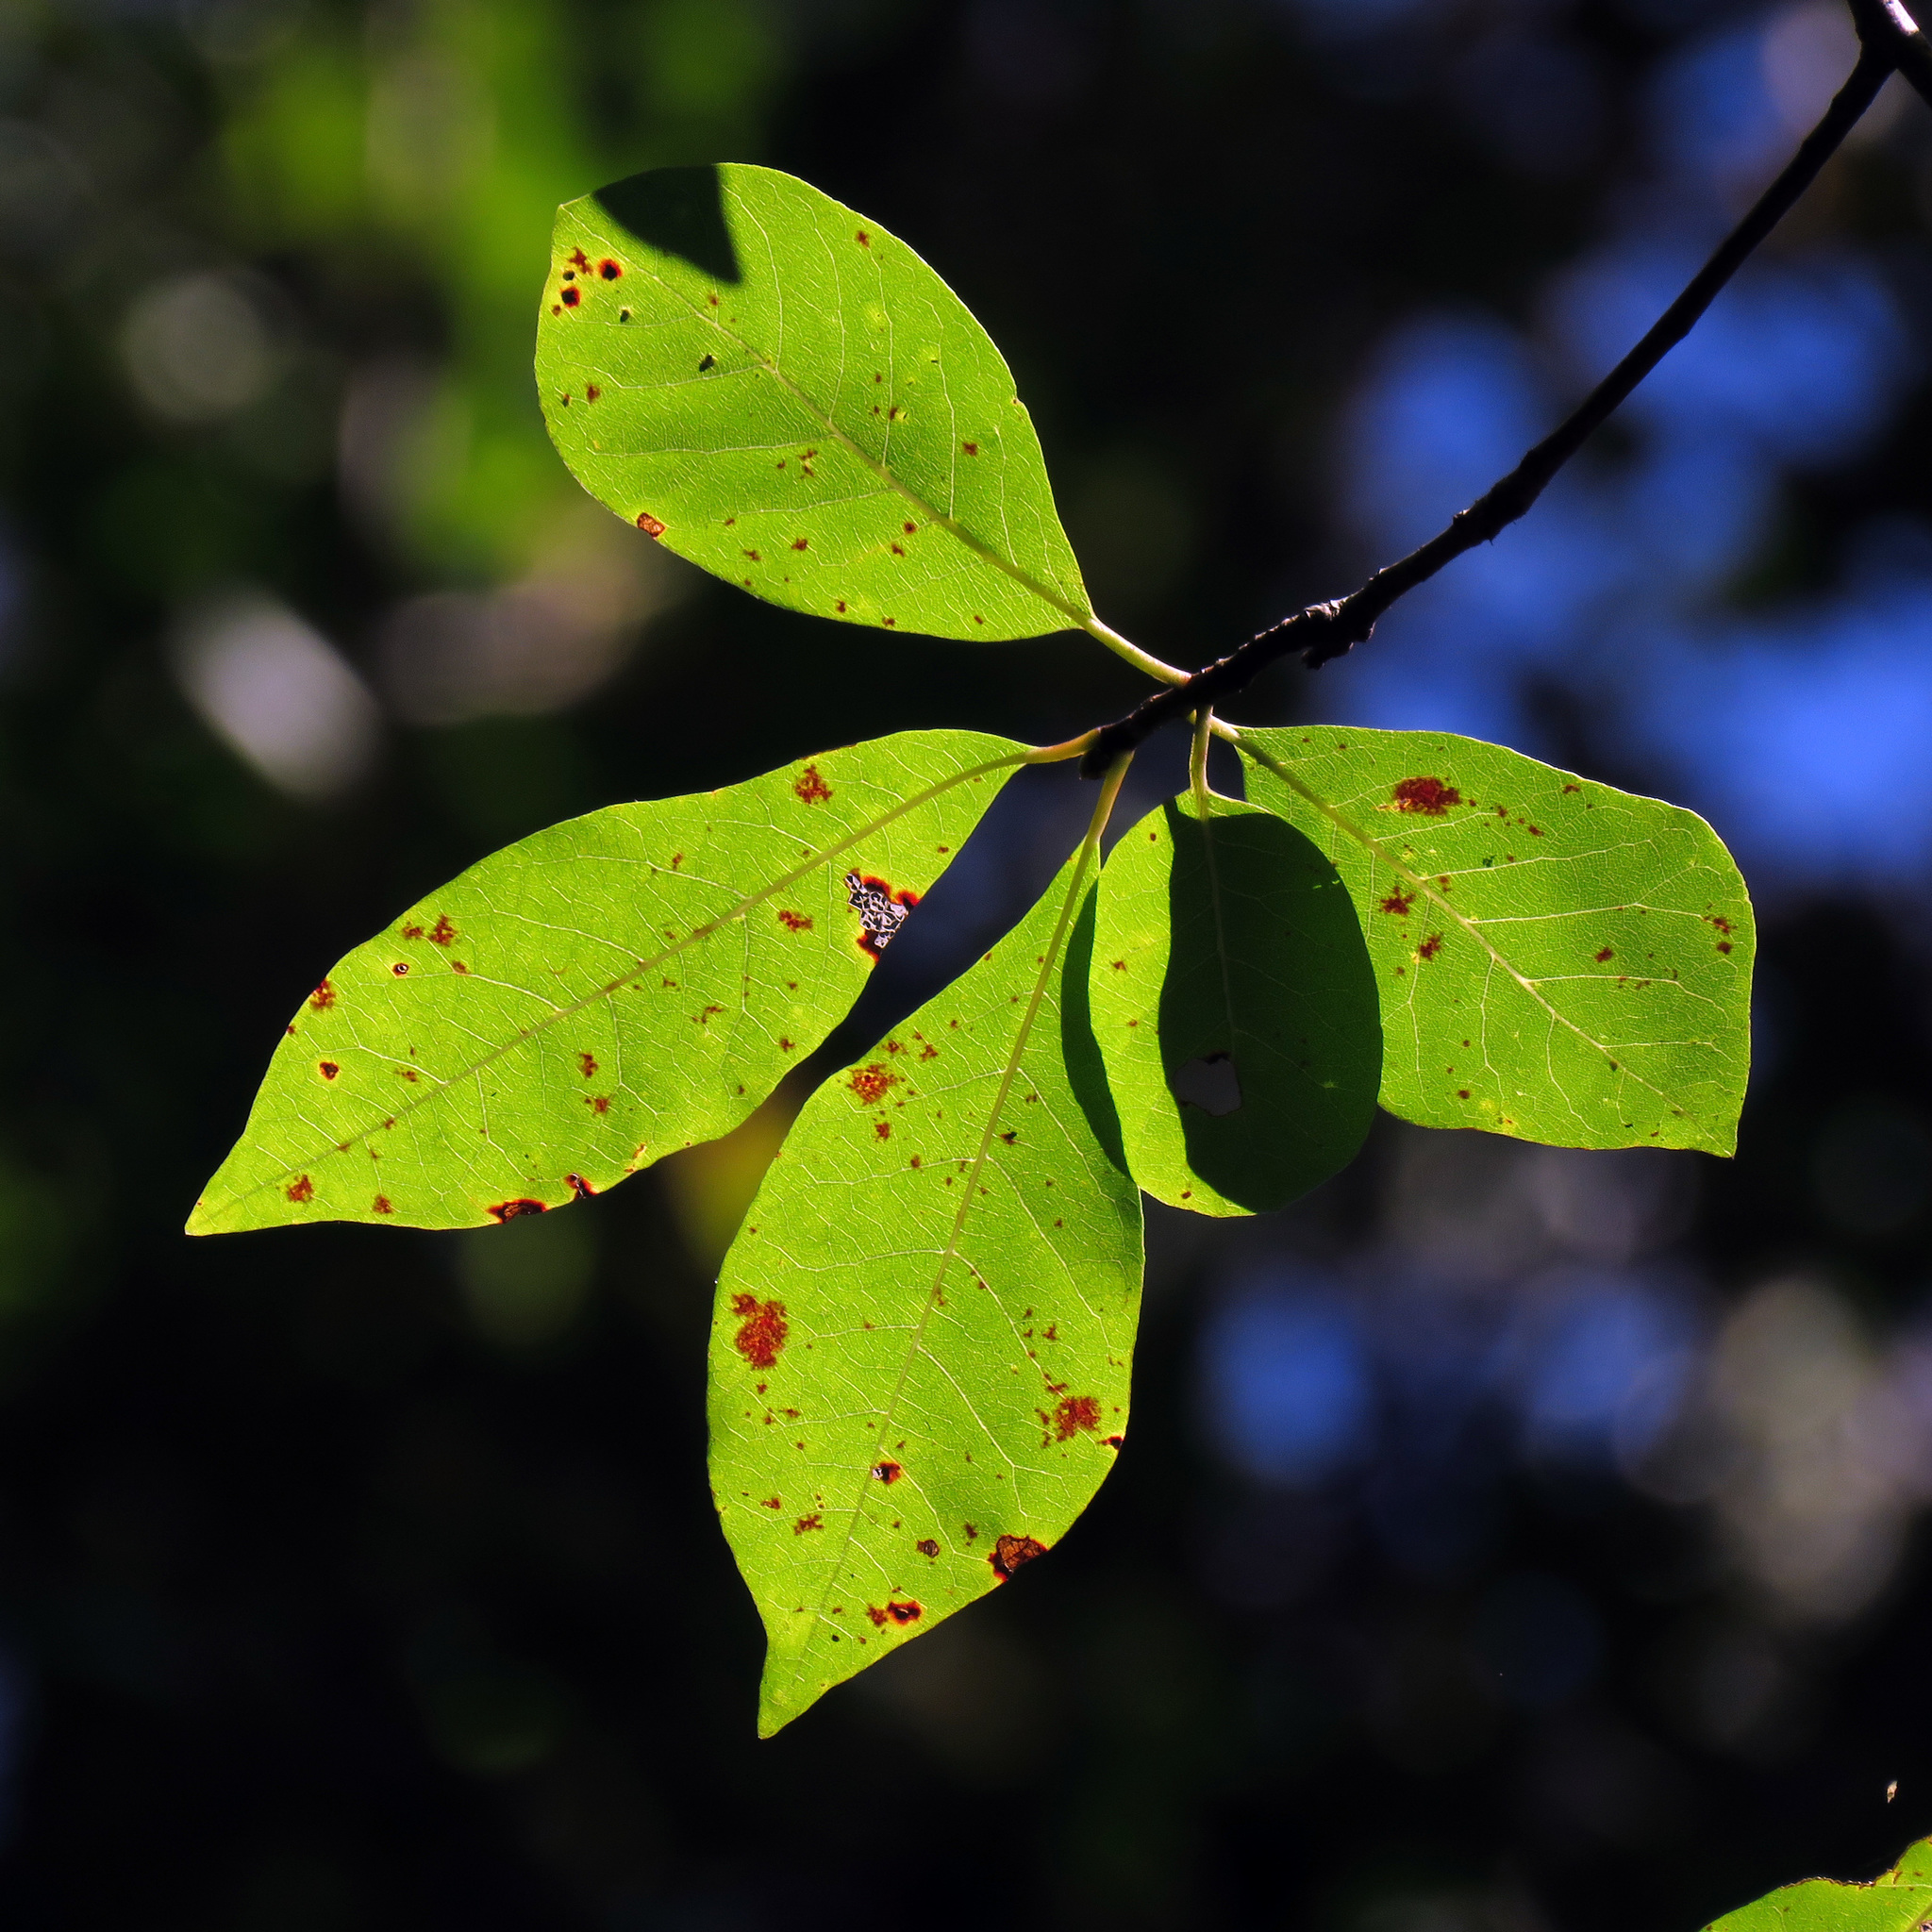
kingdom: Plantae
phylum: Tracheophyta
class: Magnoliopsida
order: Cornales
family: Nyssaceae
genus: Nyssa
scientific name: Nyssa sylvatica
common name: Black tupelo
